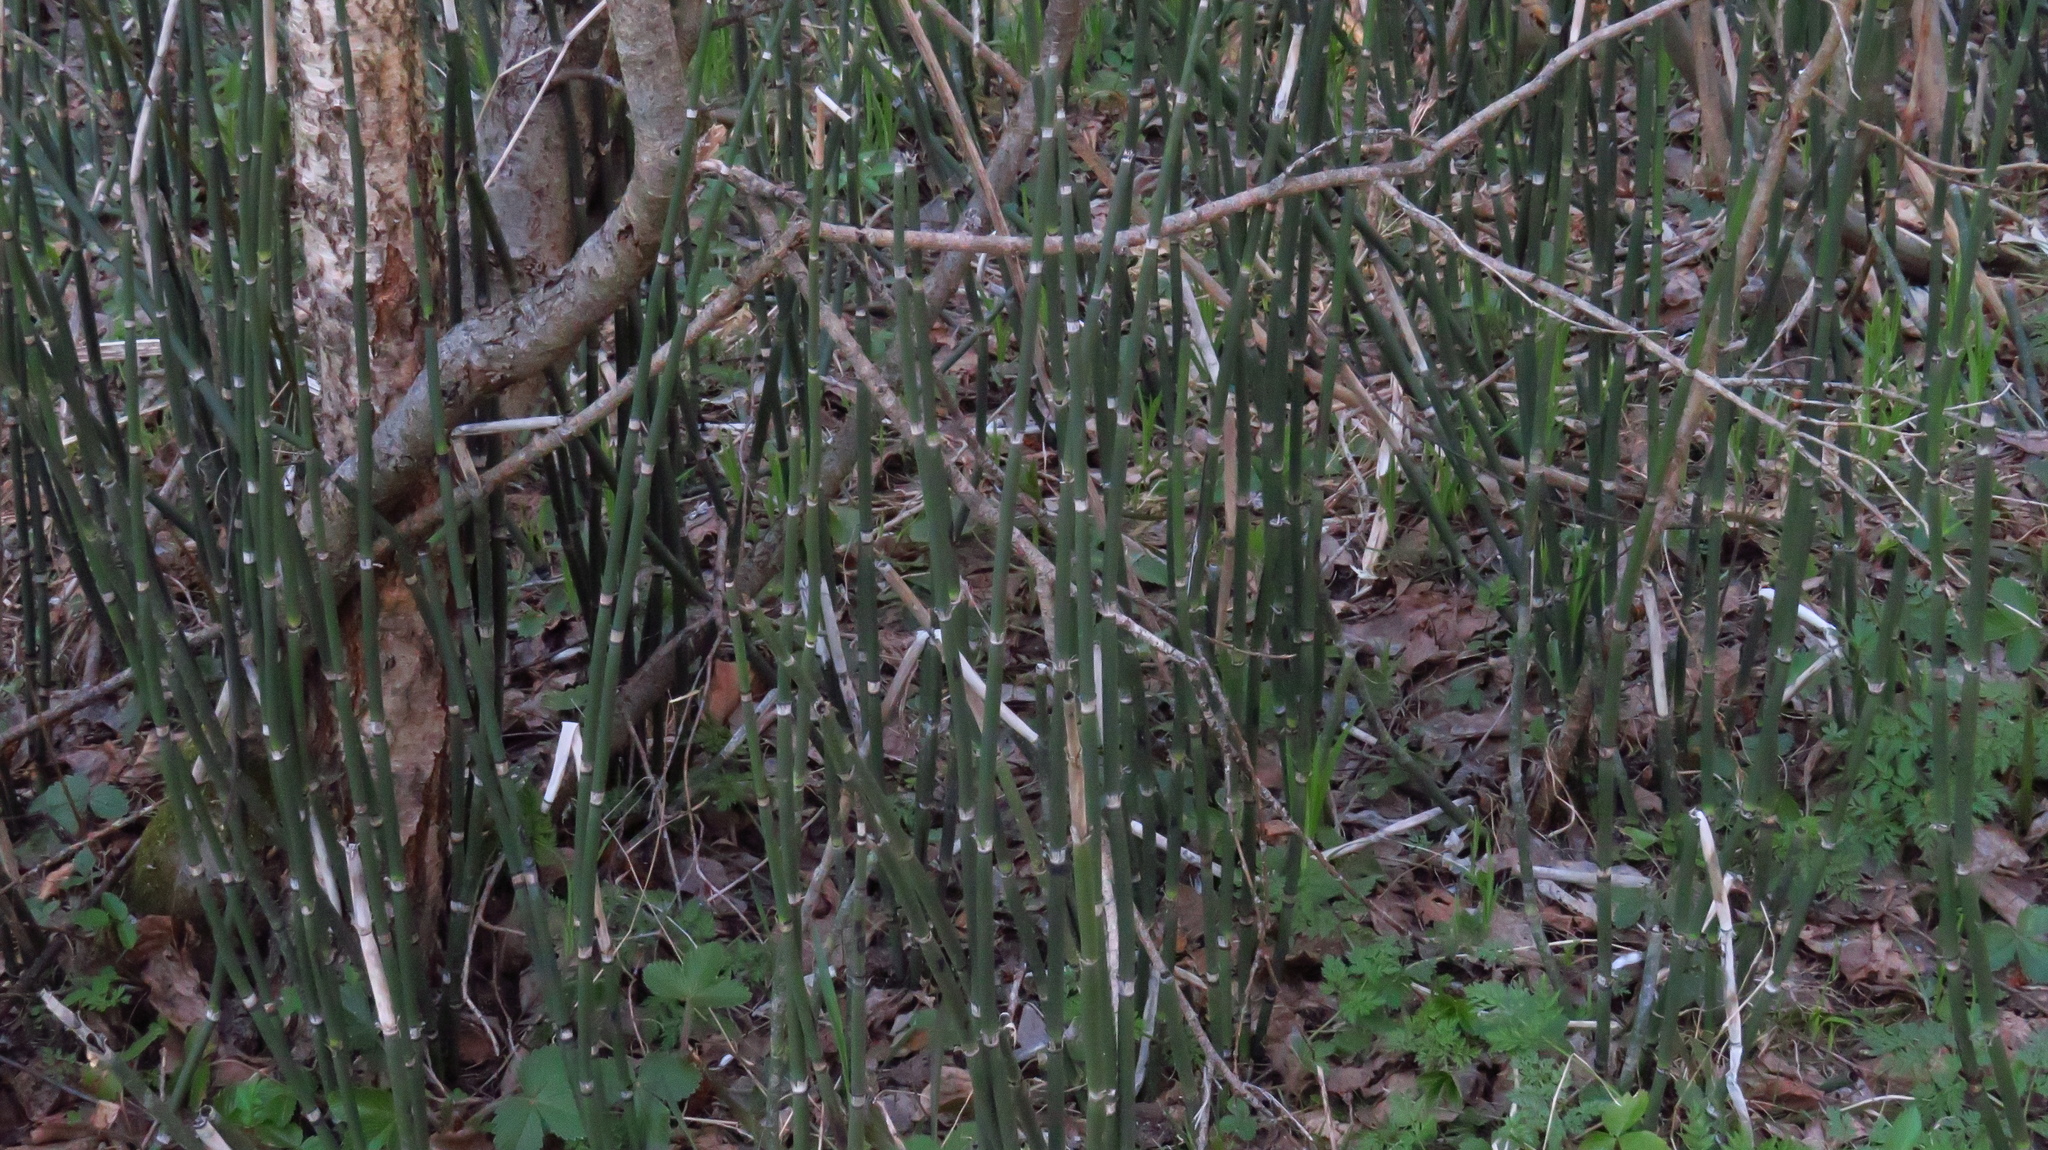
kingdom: Plantae
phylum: Tracheophyta
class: Polypodiopsida
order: Equisetales
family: Equisetaceae
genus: Equisetum
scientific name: Equisetum hyemale
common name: Rough horsetail
